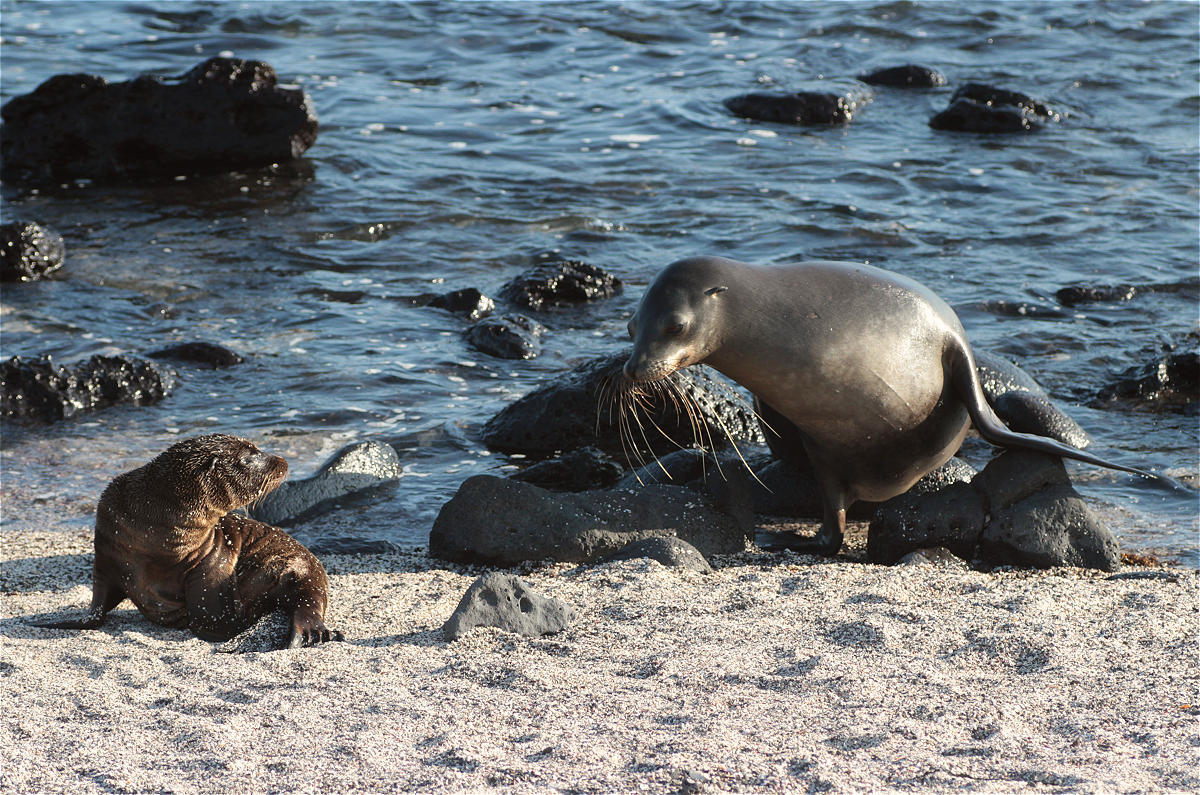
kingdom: Animalia
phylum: Chordata
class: Mammalia
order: Carnivora
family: Otariidae
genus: Zalophus
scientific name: Zalophus wollebaeki
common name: Galapagos sea lion
